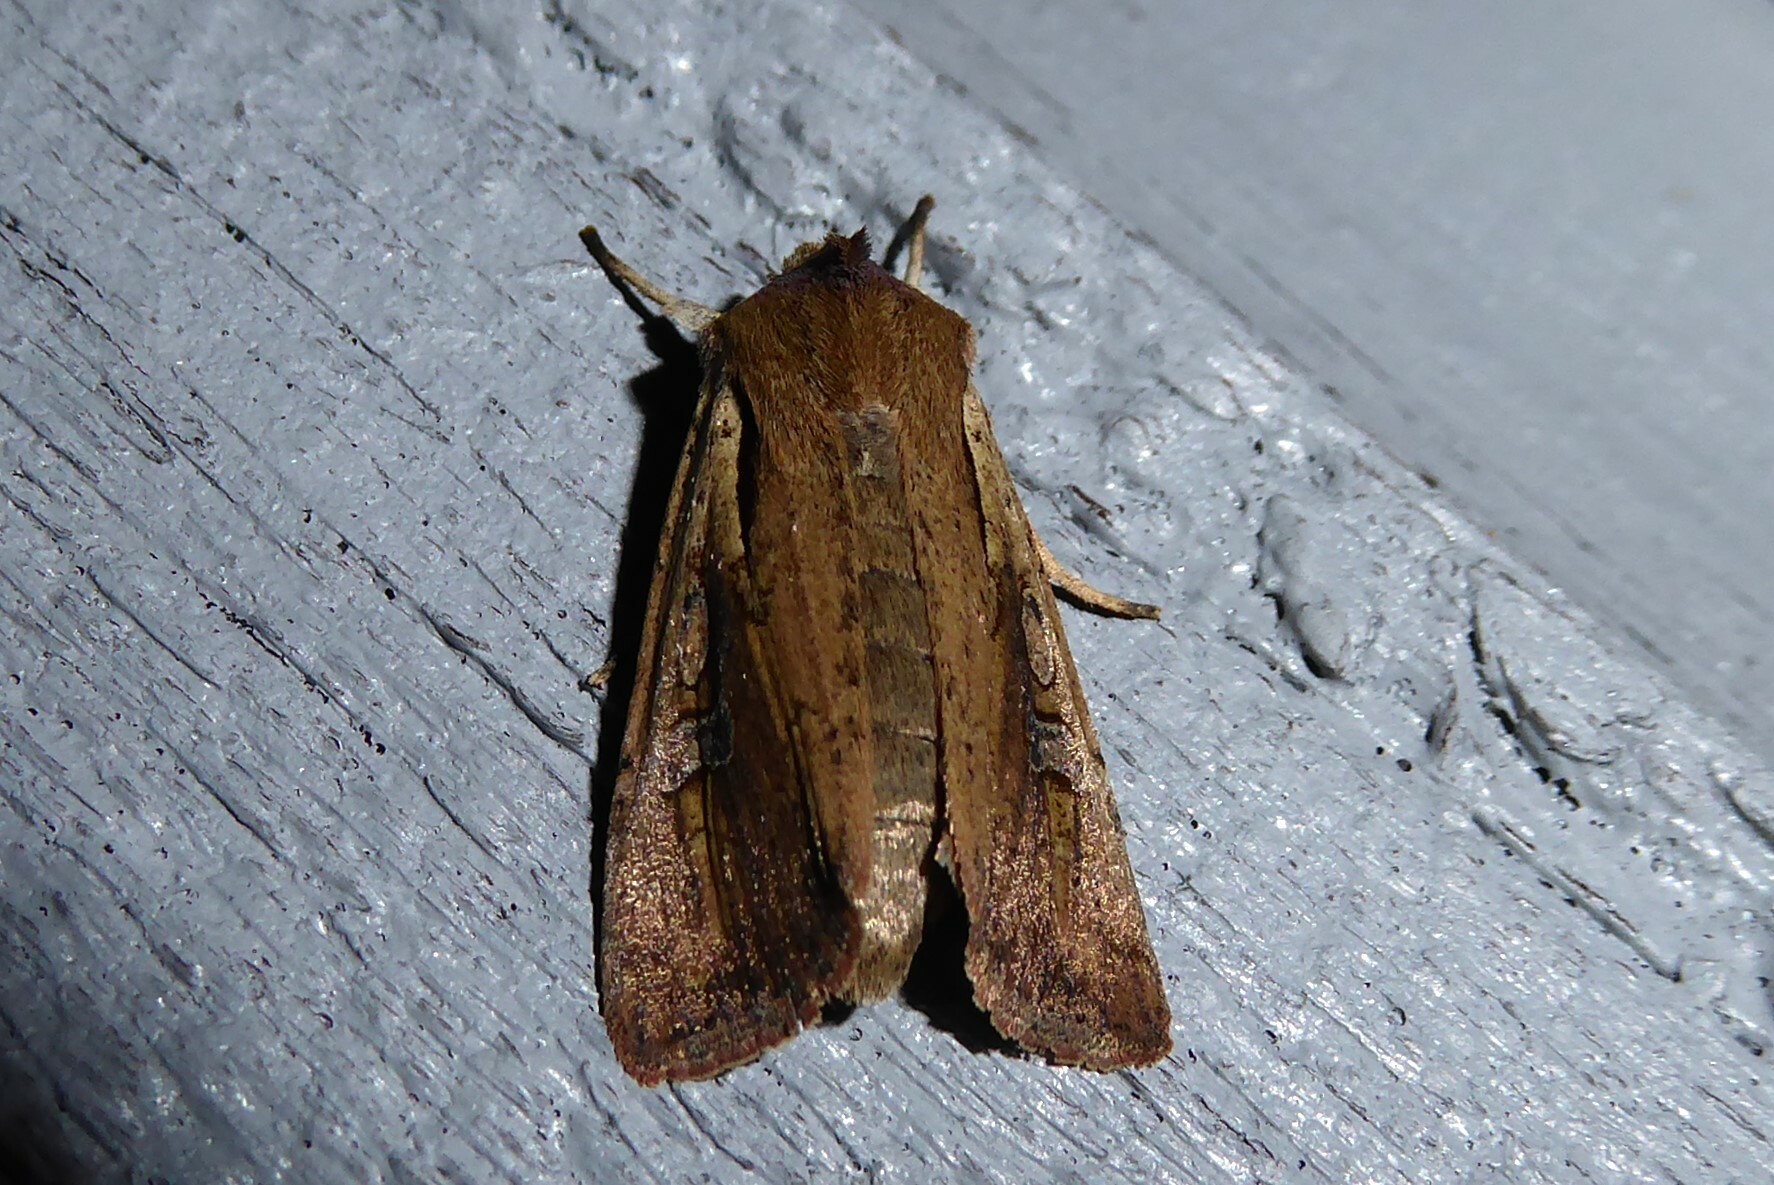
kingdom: Animalia
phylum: Arthropoda
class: Insecta
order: Lepidoptera
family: Noctuidae
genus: Ichneutica
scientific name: Ichneutica atristriga
